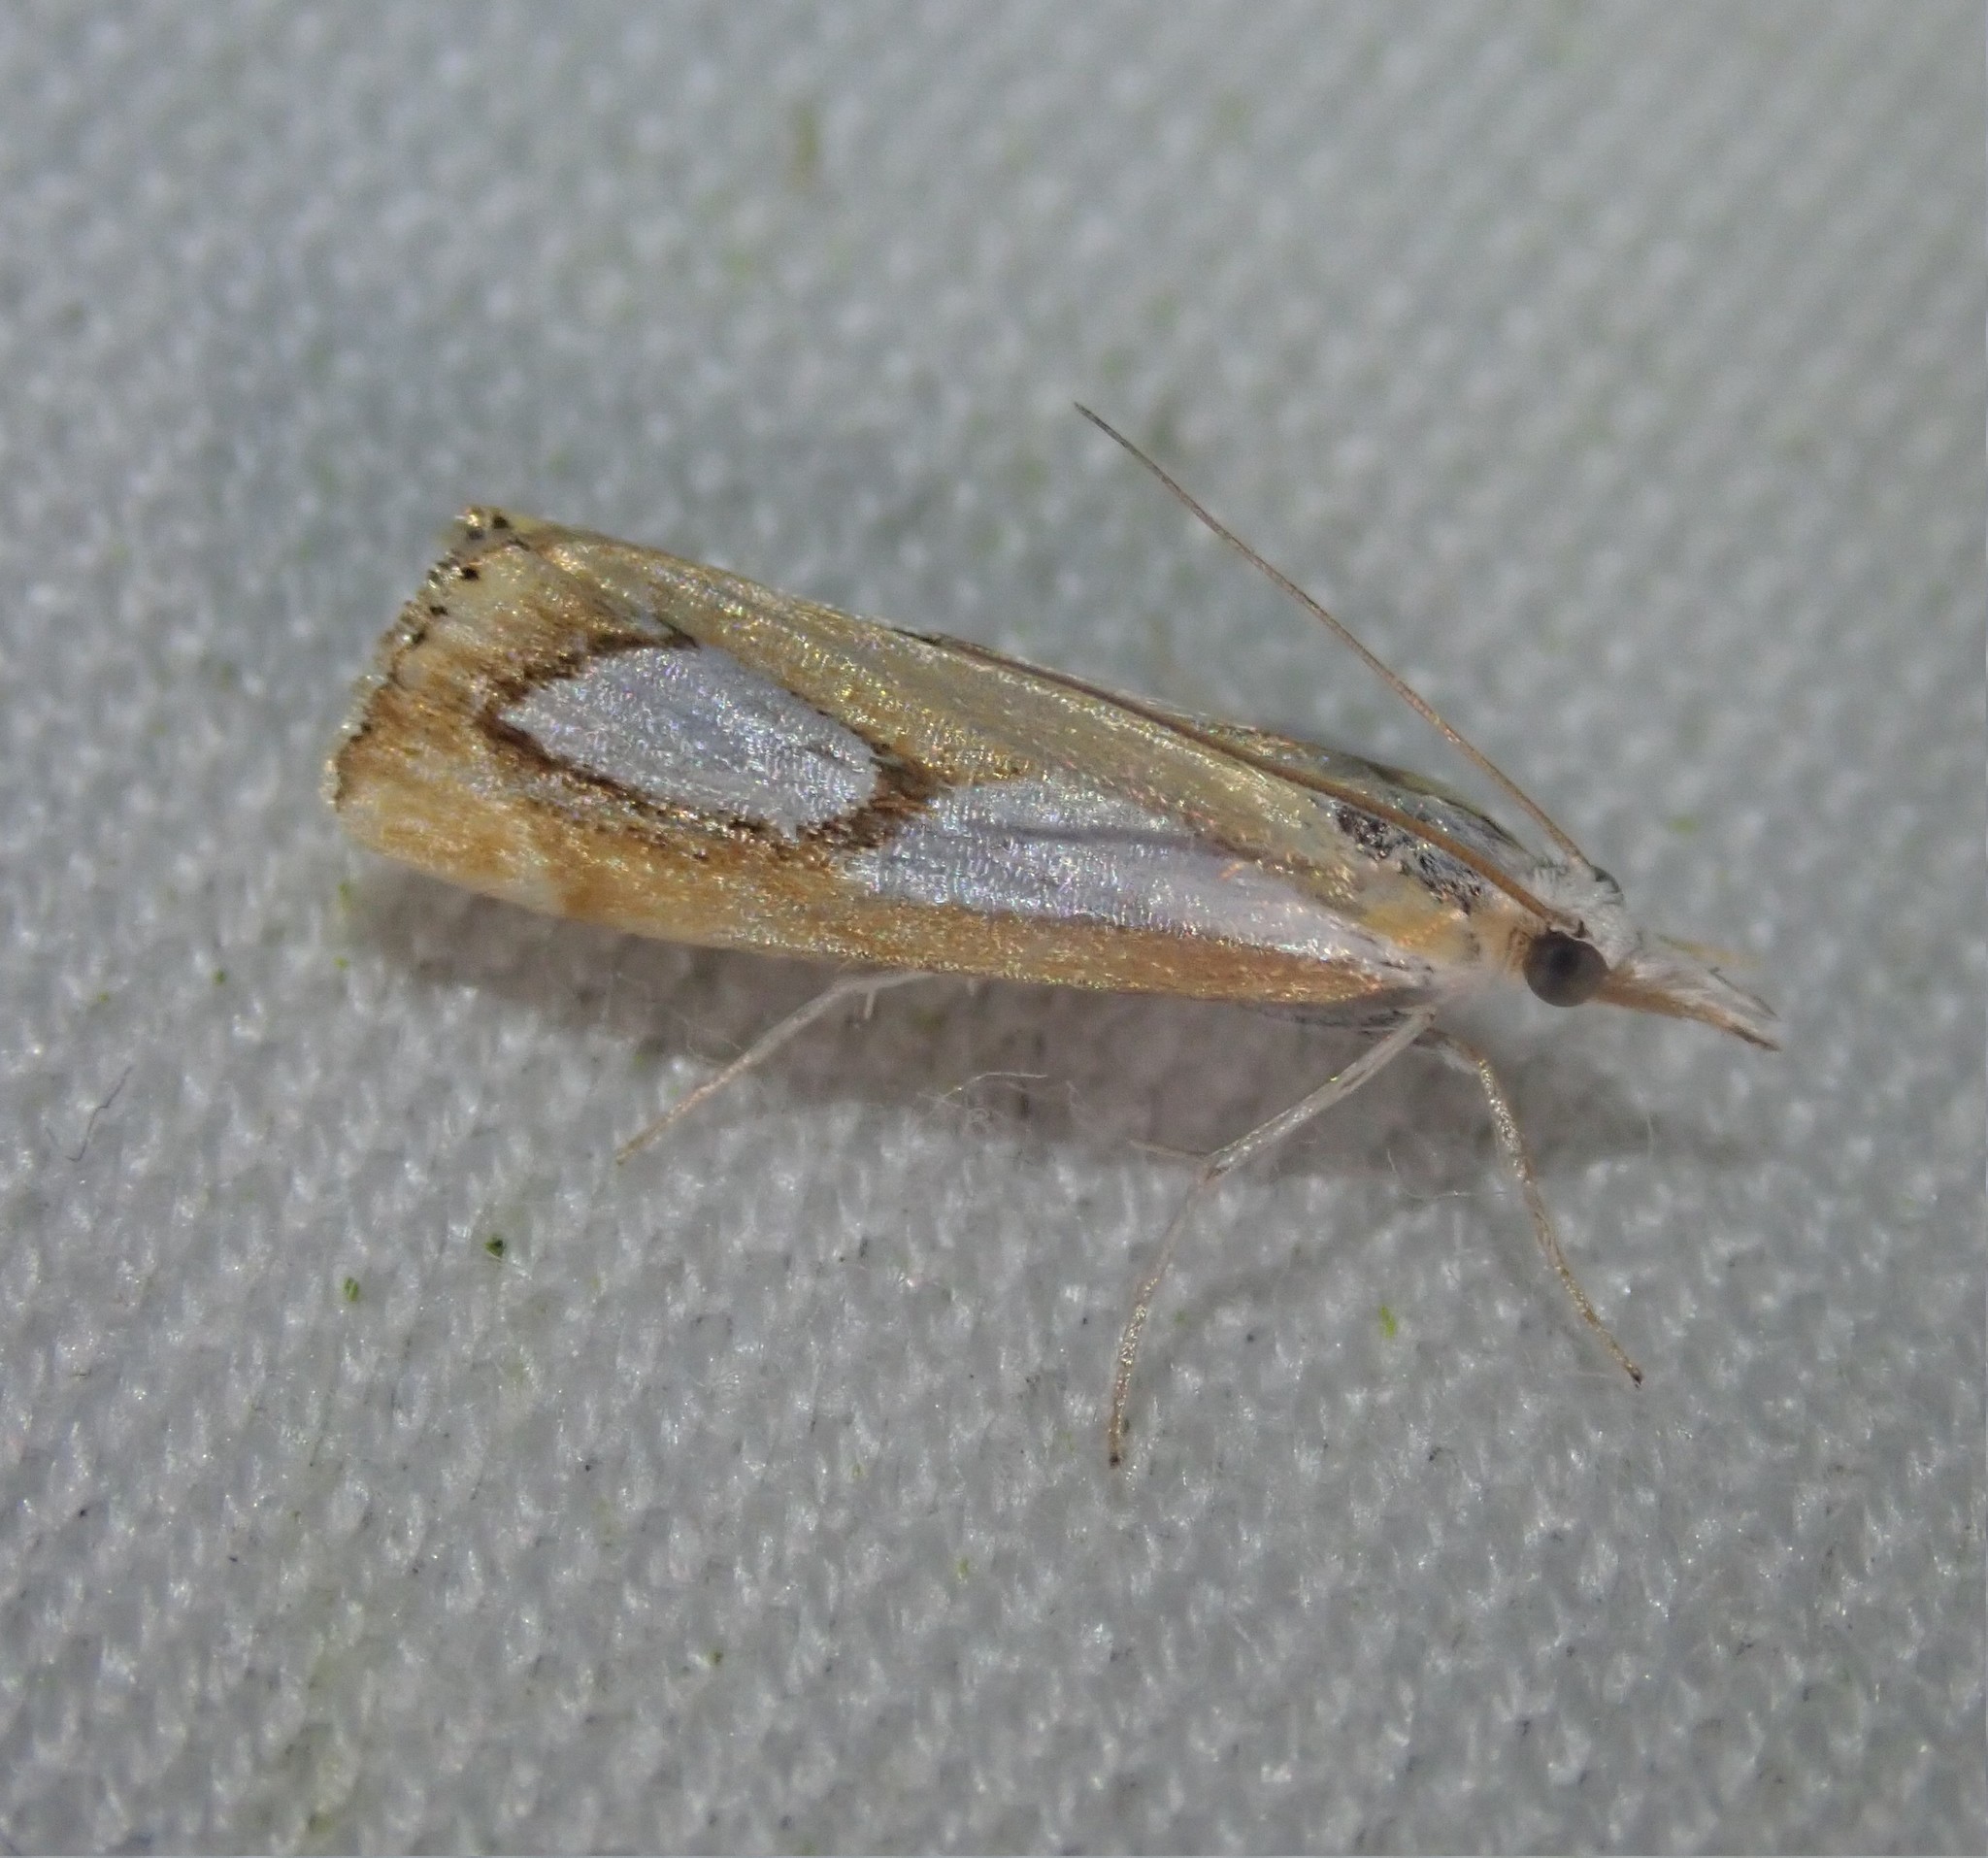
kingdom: Animalia
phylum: Arthropoda
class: Insecta
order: Lepidoptera
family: Crambidae
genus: Catoptria
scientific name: Catoptria pinella
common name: Pearl grass-veneer
